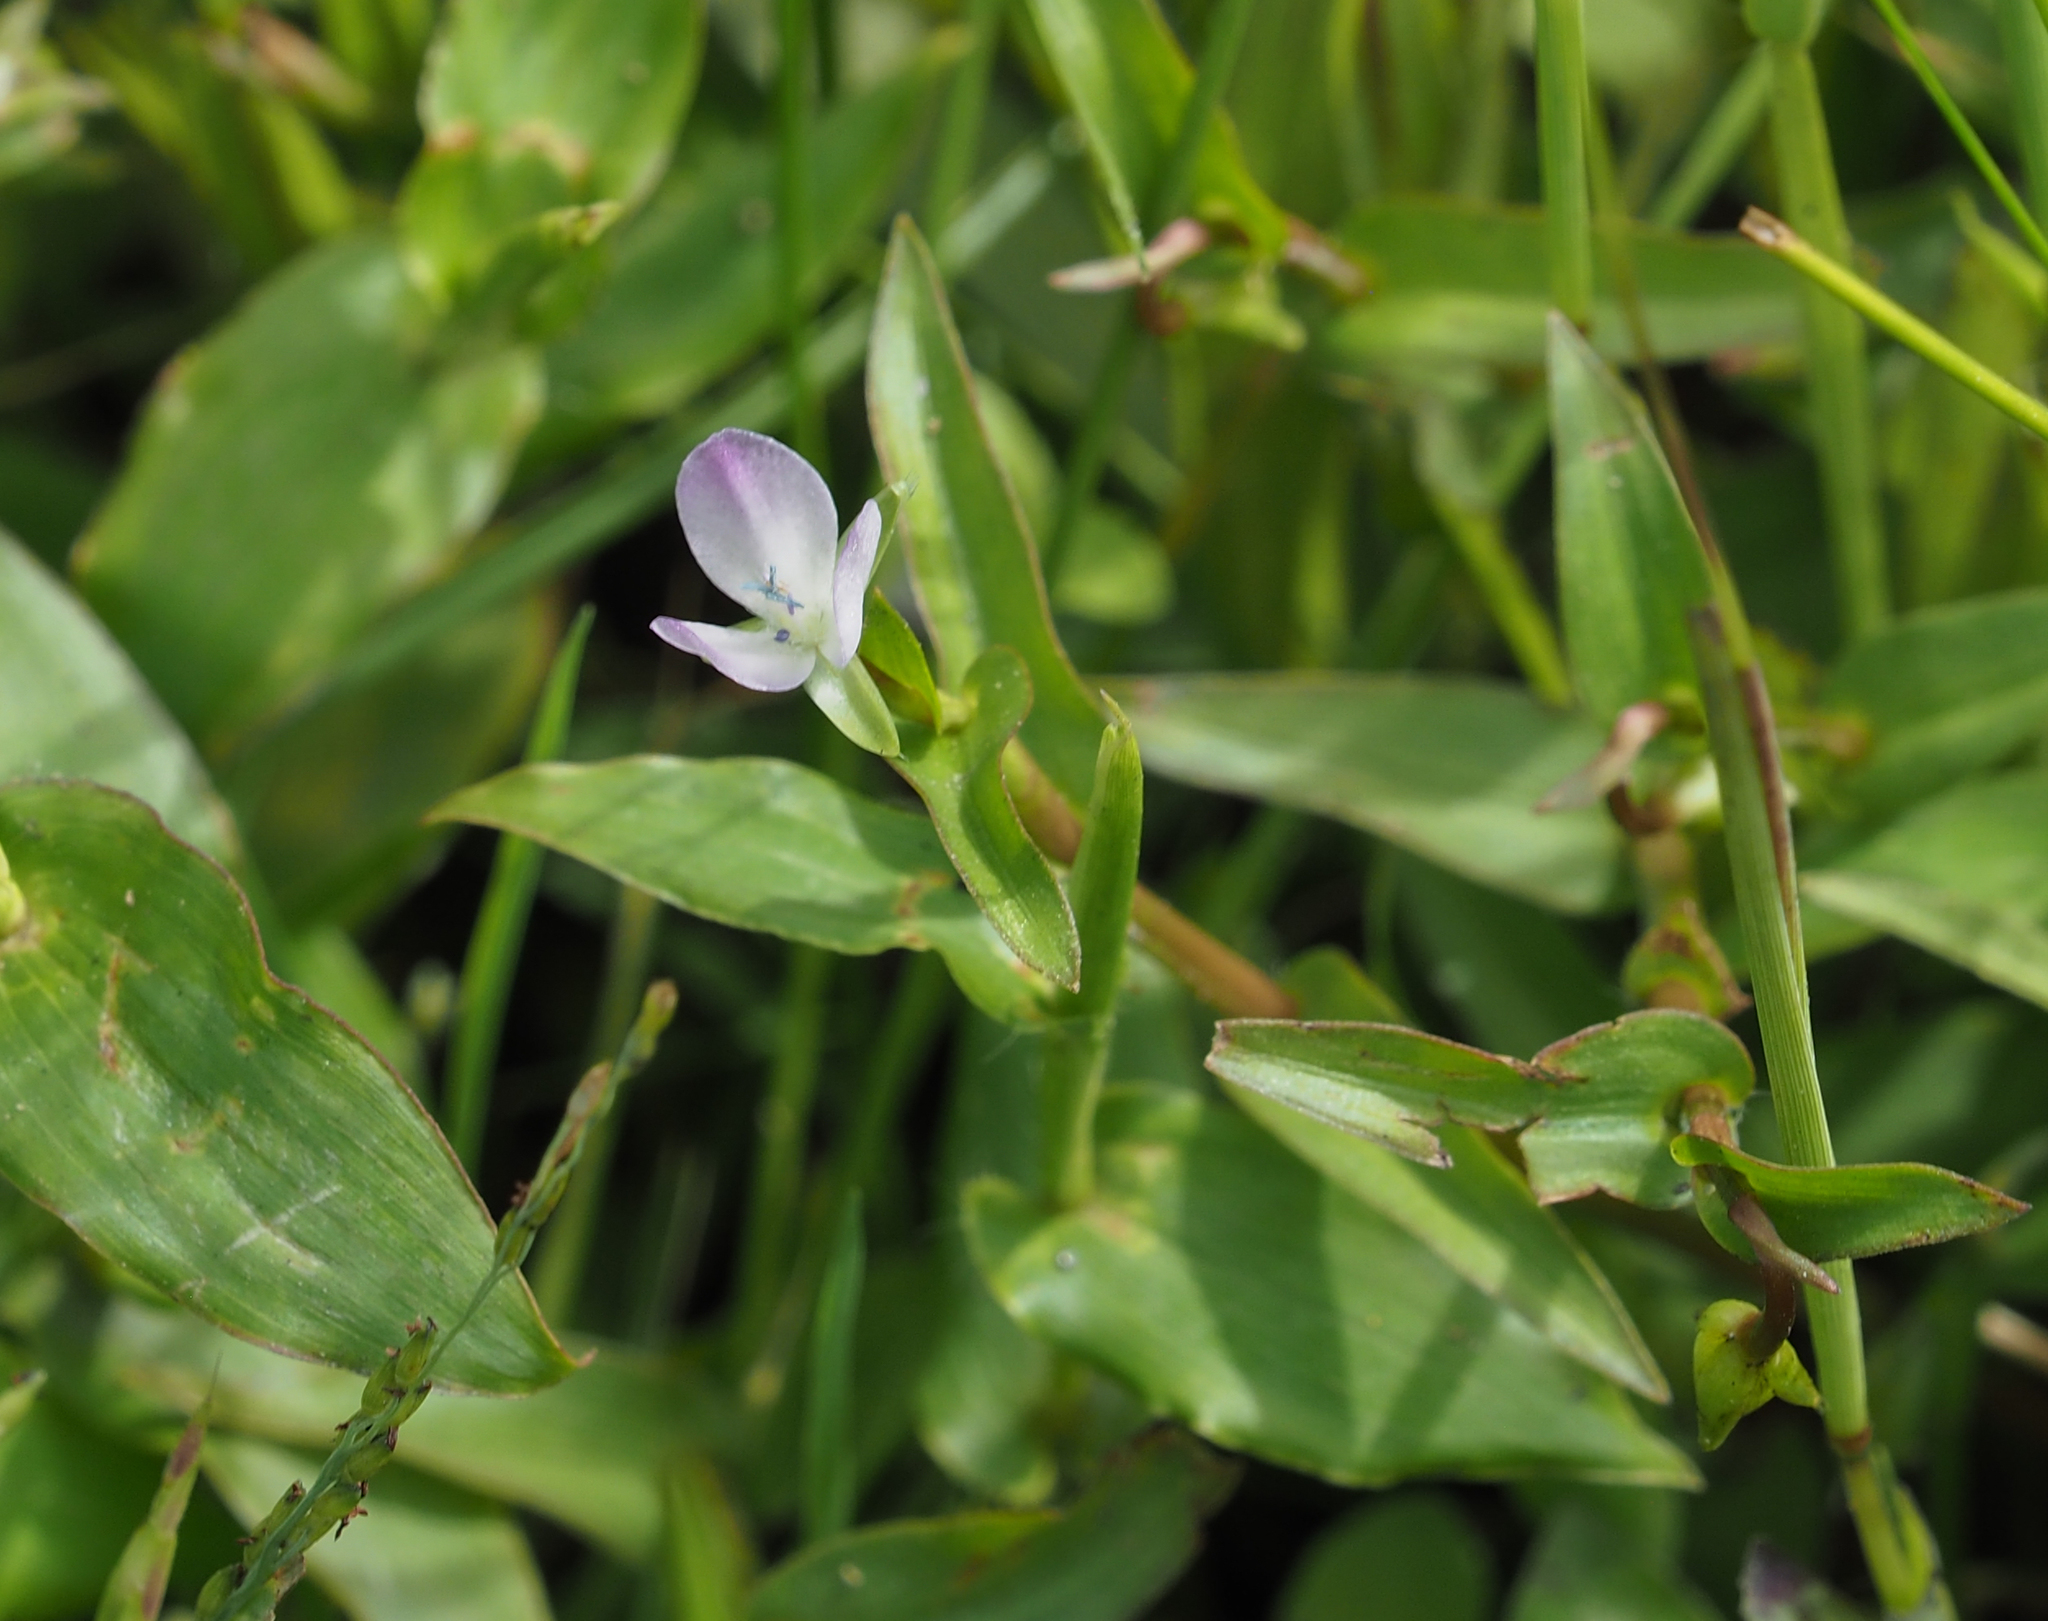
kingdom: Plantae
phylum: Tracheophyta
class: Liliopsida
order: Commelinales
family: Commelinaceae
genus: Murdannia
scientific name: Murdannia keisak
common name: Wartremoving herb
